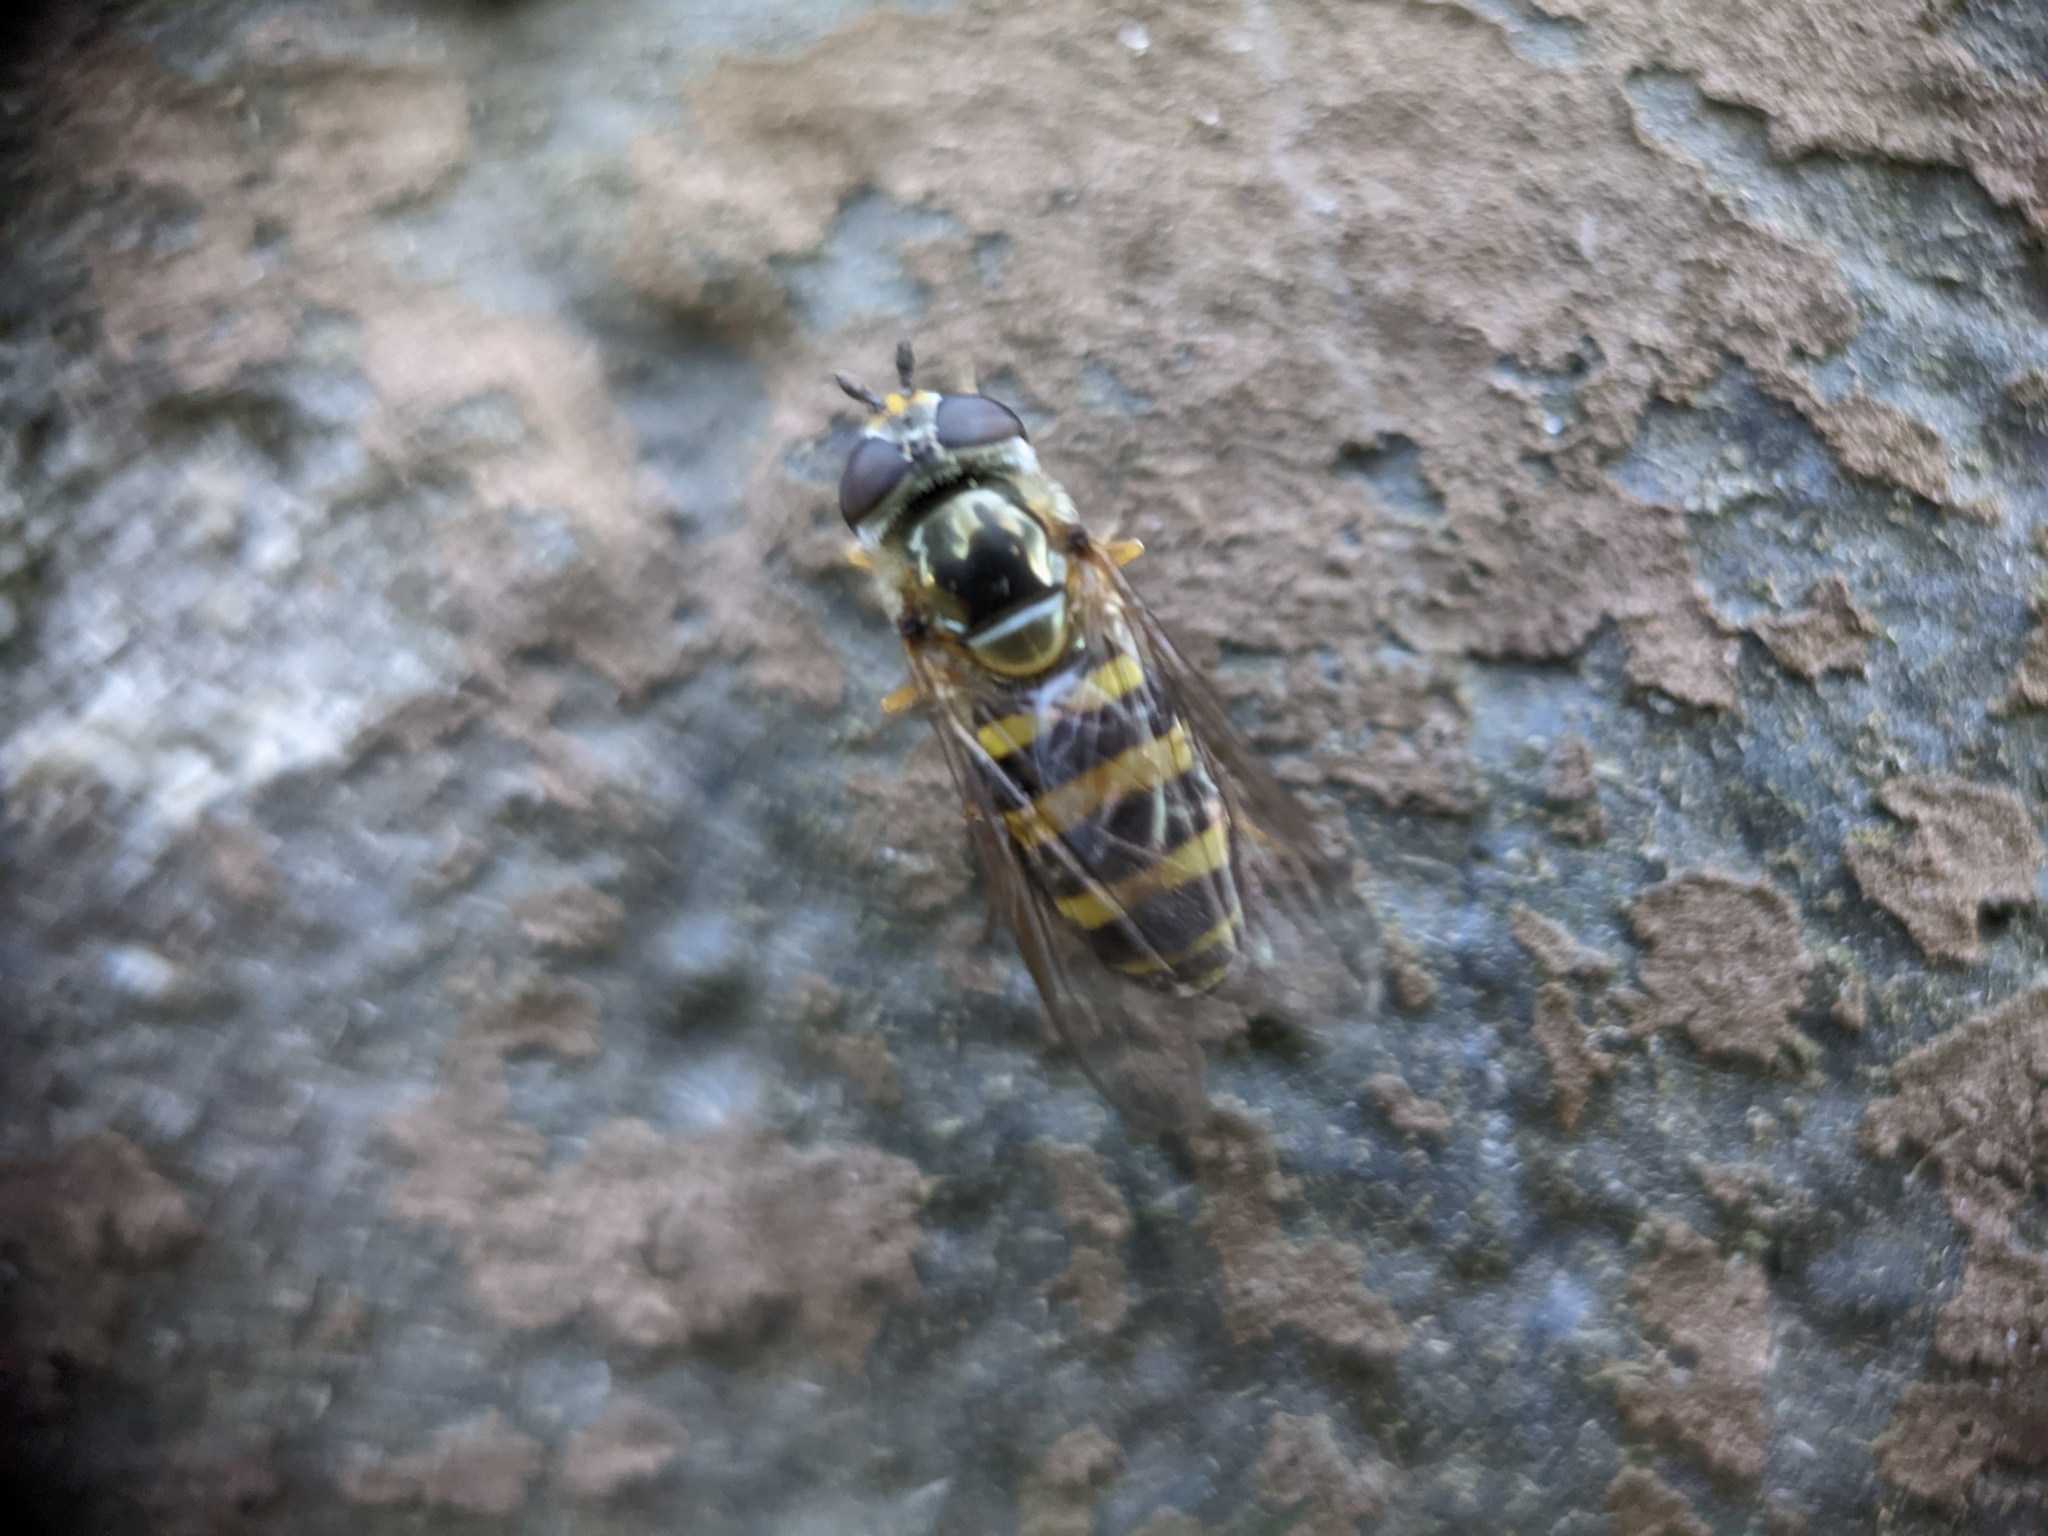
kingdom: Animalia
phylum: Arthropoda
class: Insecta
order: Diptera
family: Syrphidae
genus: Eupeodes
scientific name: Eupeodes
